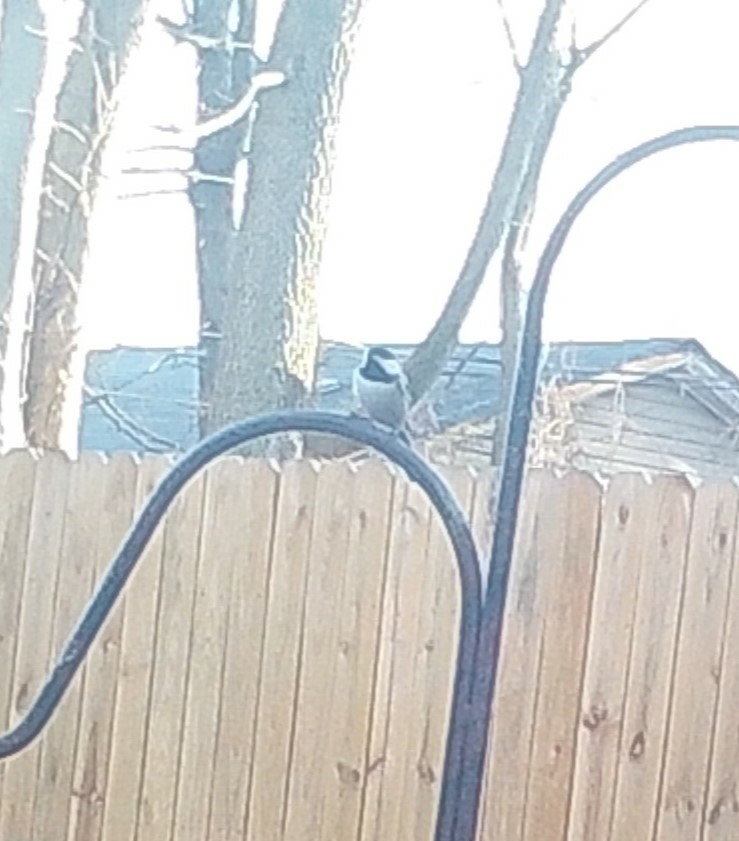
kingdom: Animalia
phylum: Chordata
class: Aves
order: Passeriformes
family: Paridae
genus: Poecile
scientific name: Poecile carolinensis
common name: Carolina chickadee
